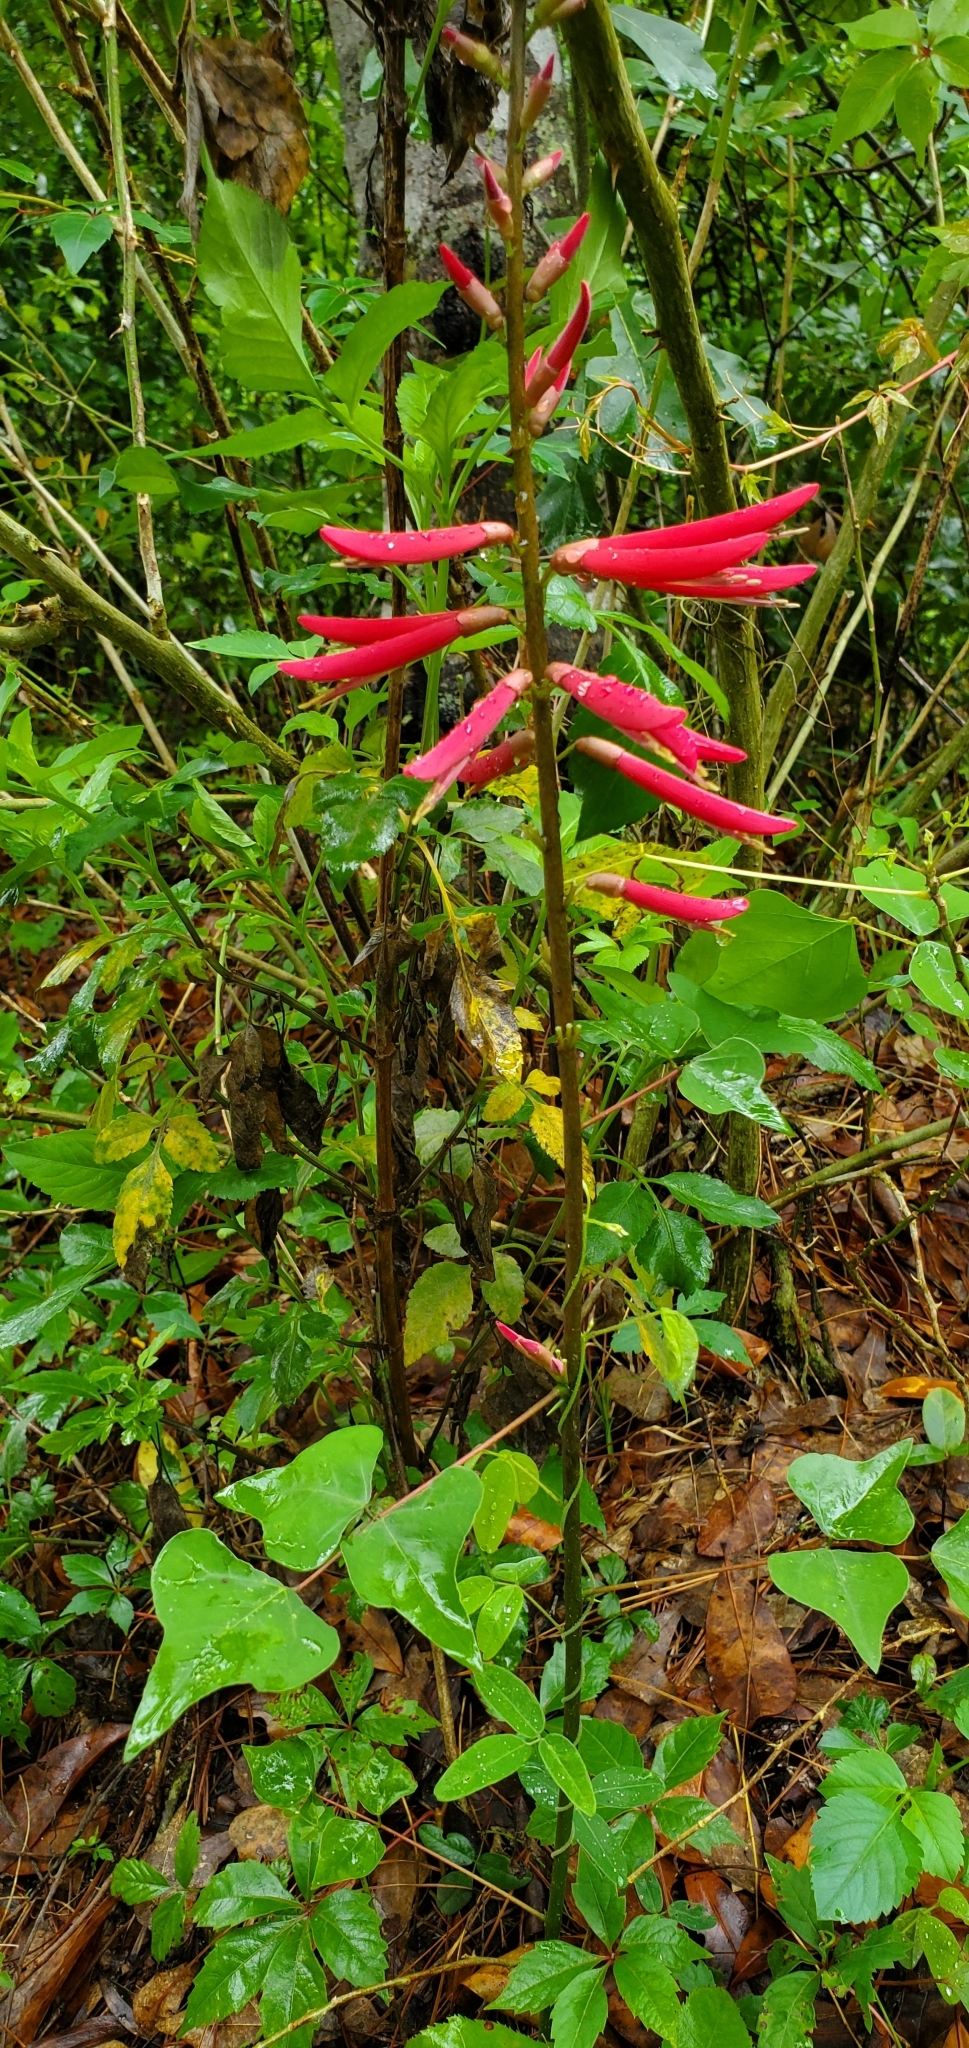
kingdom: Plantae
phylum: Tracheophyta
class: Magnoliopsida
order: Fabales
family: Fabaceae
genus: Erythrina
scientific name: Erythrina herbacea
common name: Coral-bean
